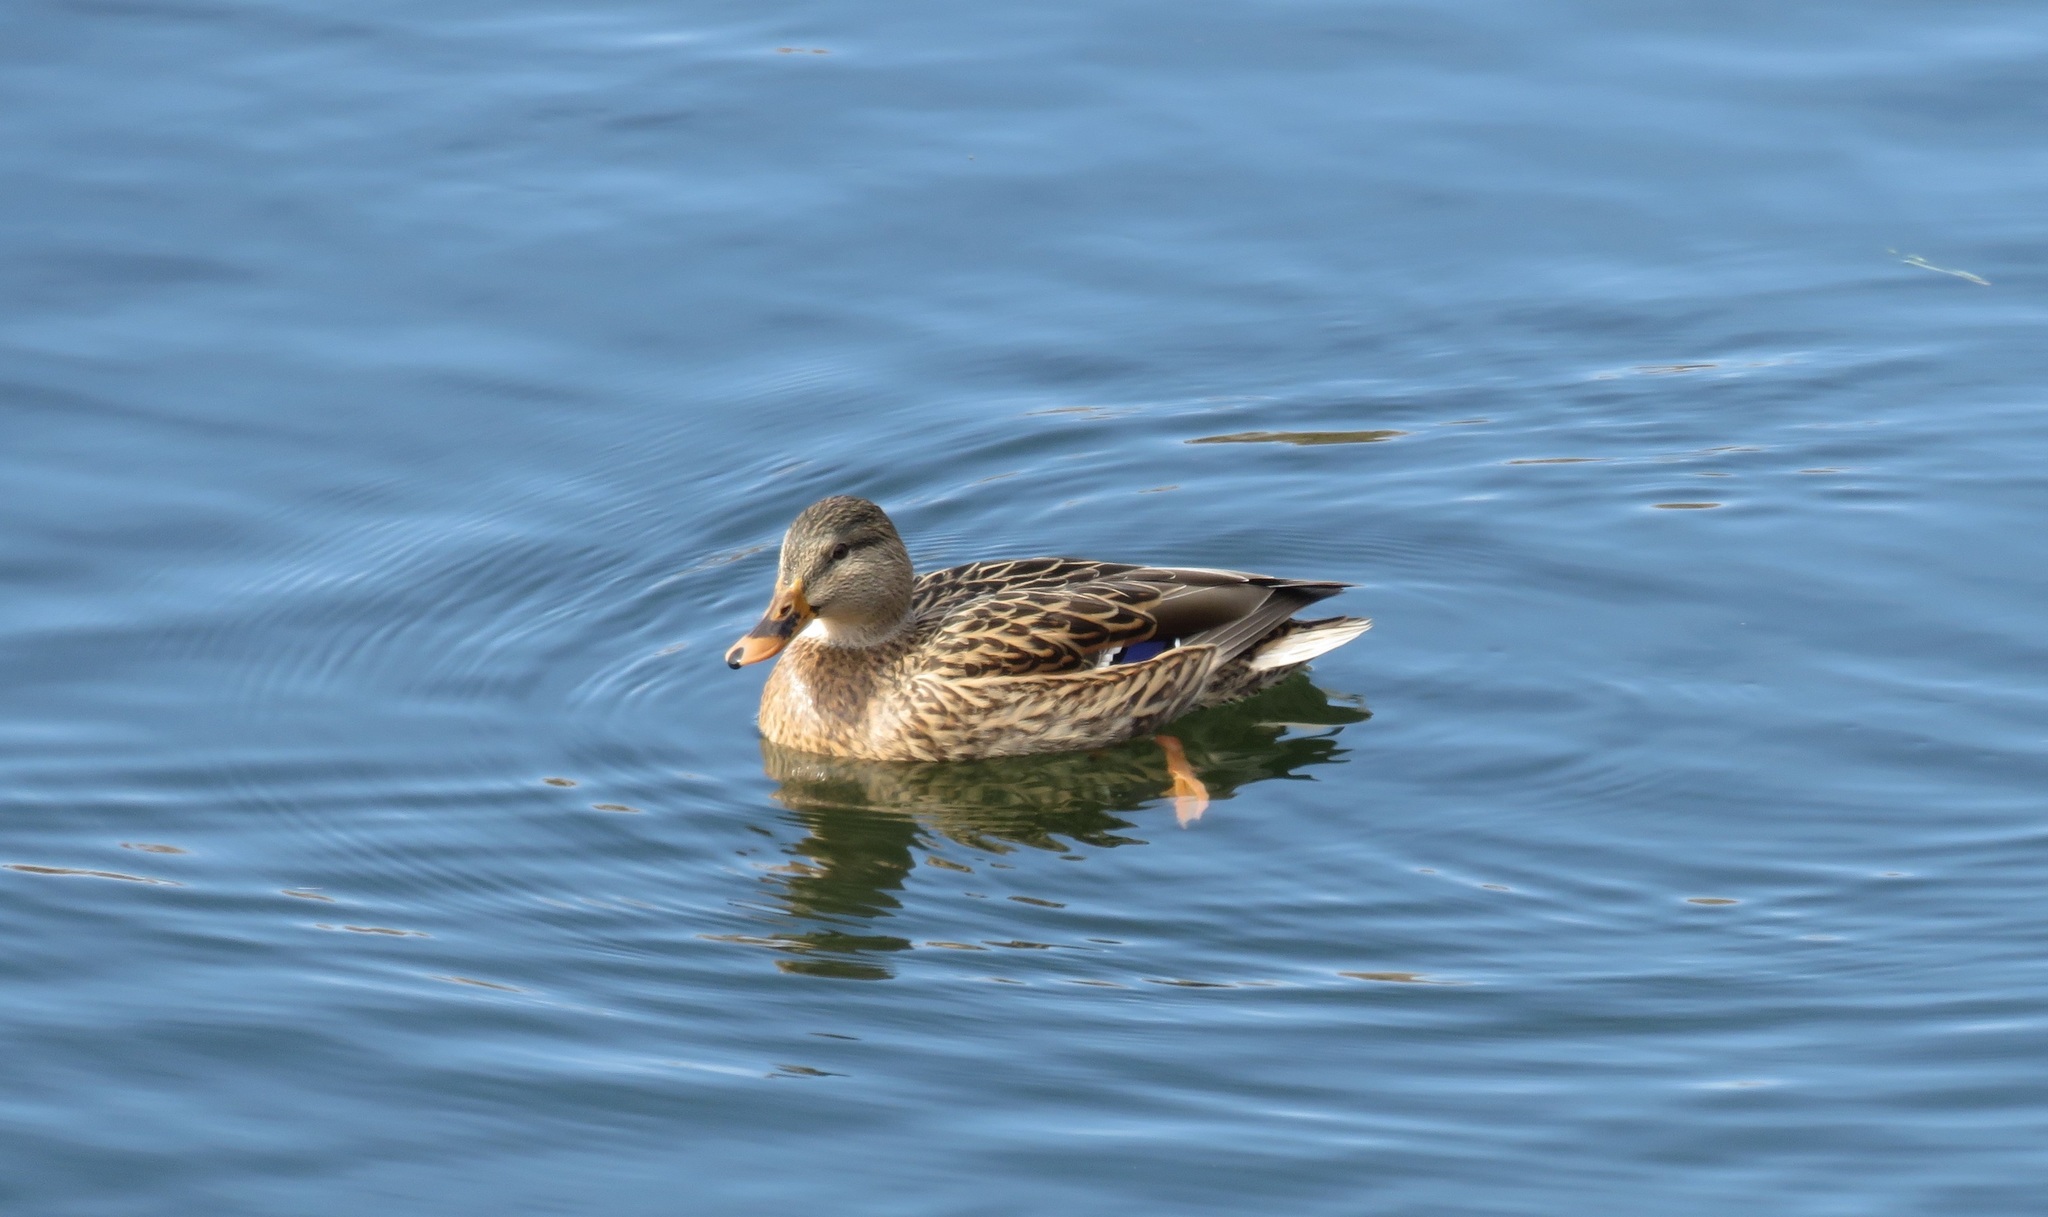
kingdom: Animalia
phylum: Chordata
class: Aves
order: Anseriformes
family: Anatidae
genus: Anas
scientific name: Anas platyrhynchos
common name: Mallard
